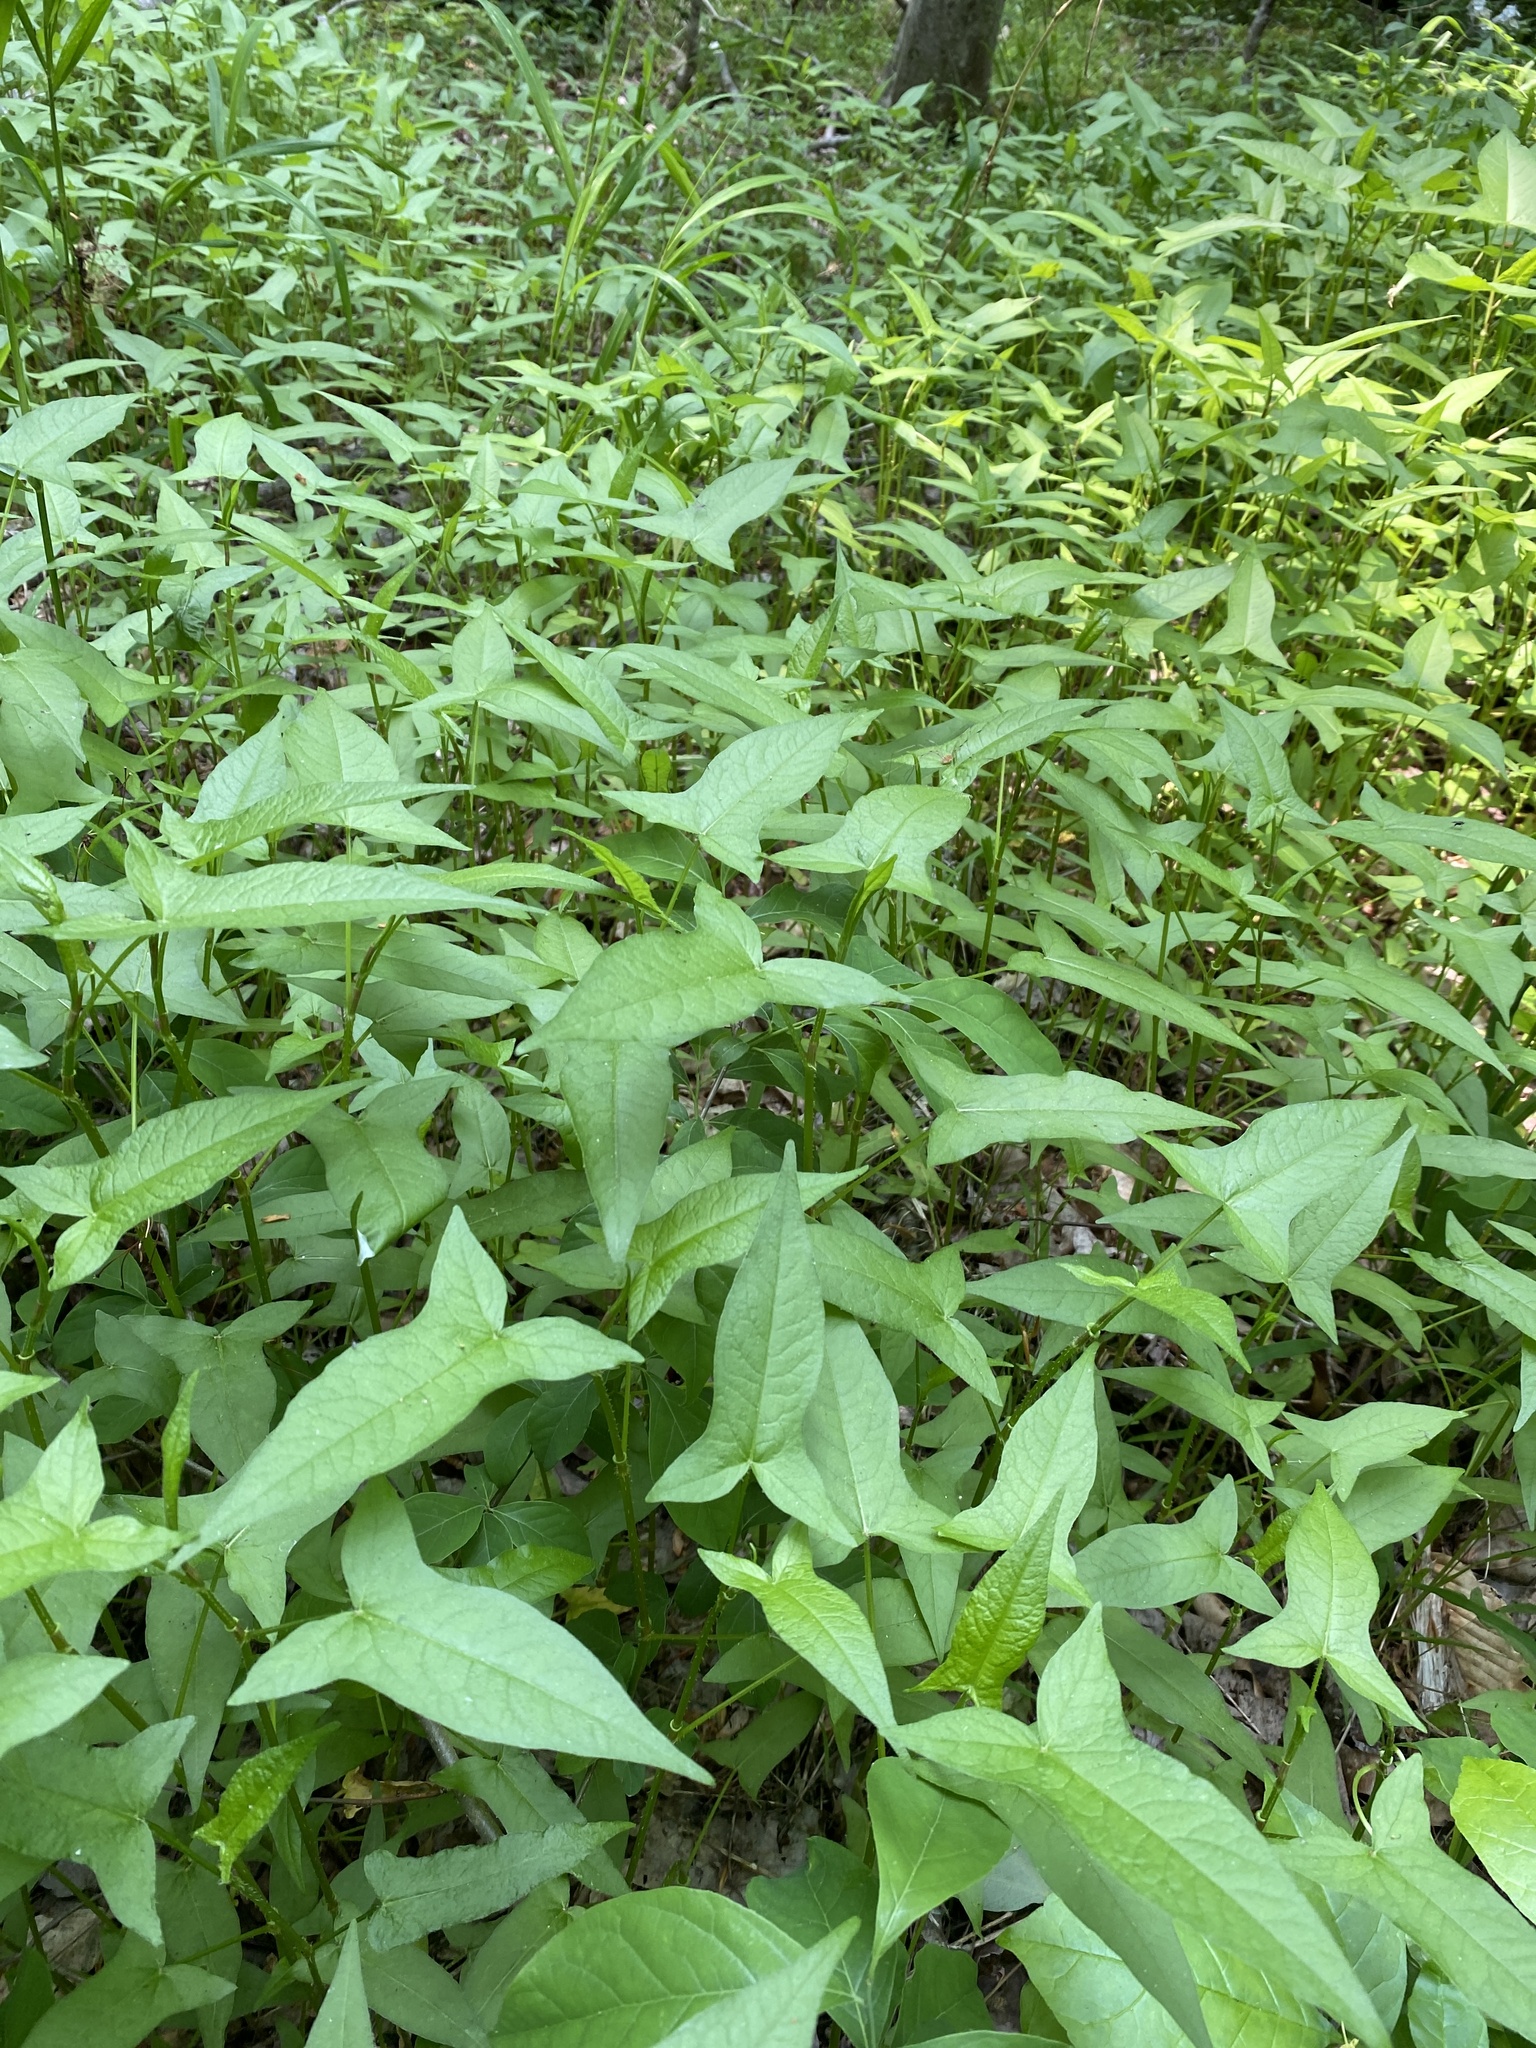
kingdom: Plantae
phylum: Tracheophyta
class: Magnoliopsida
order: Caryophyllales
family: Polygonaceae
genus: Persicaria
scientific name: Persicaria arifolia
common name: Halberd-leaved tear-thumb
